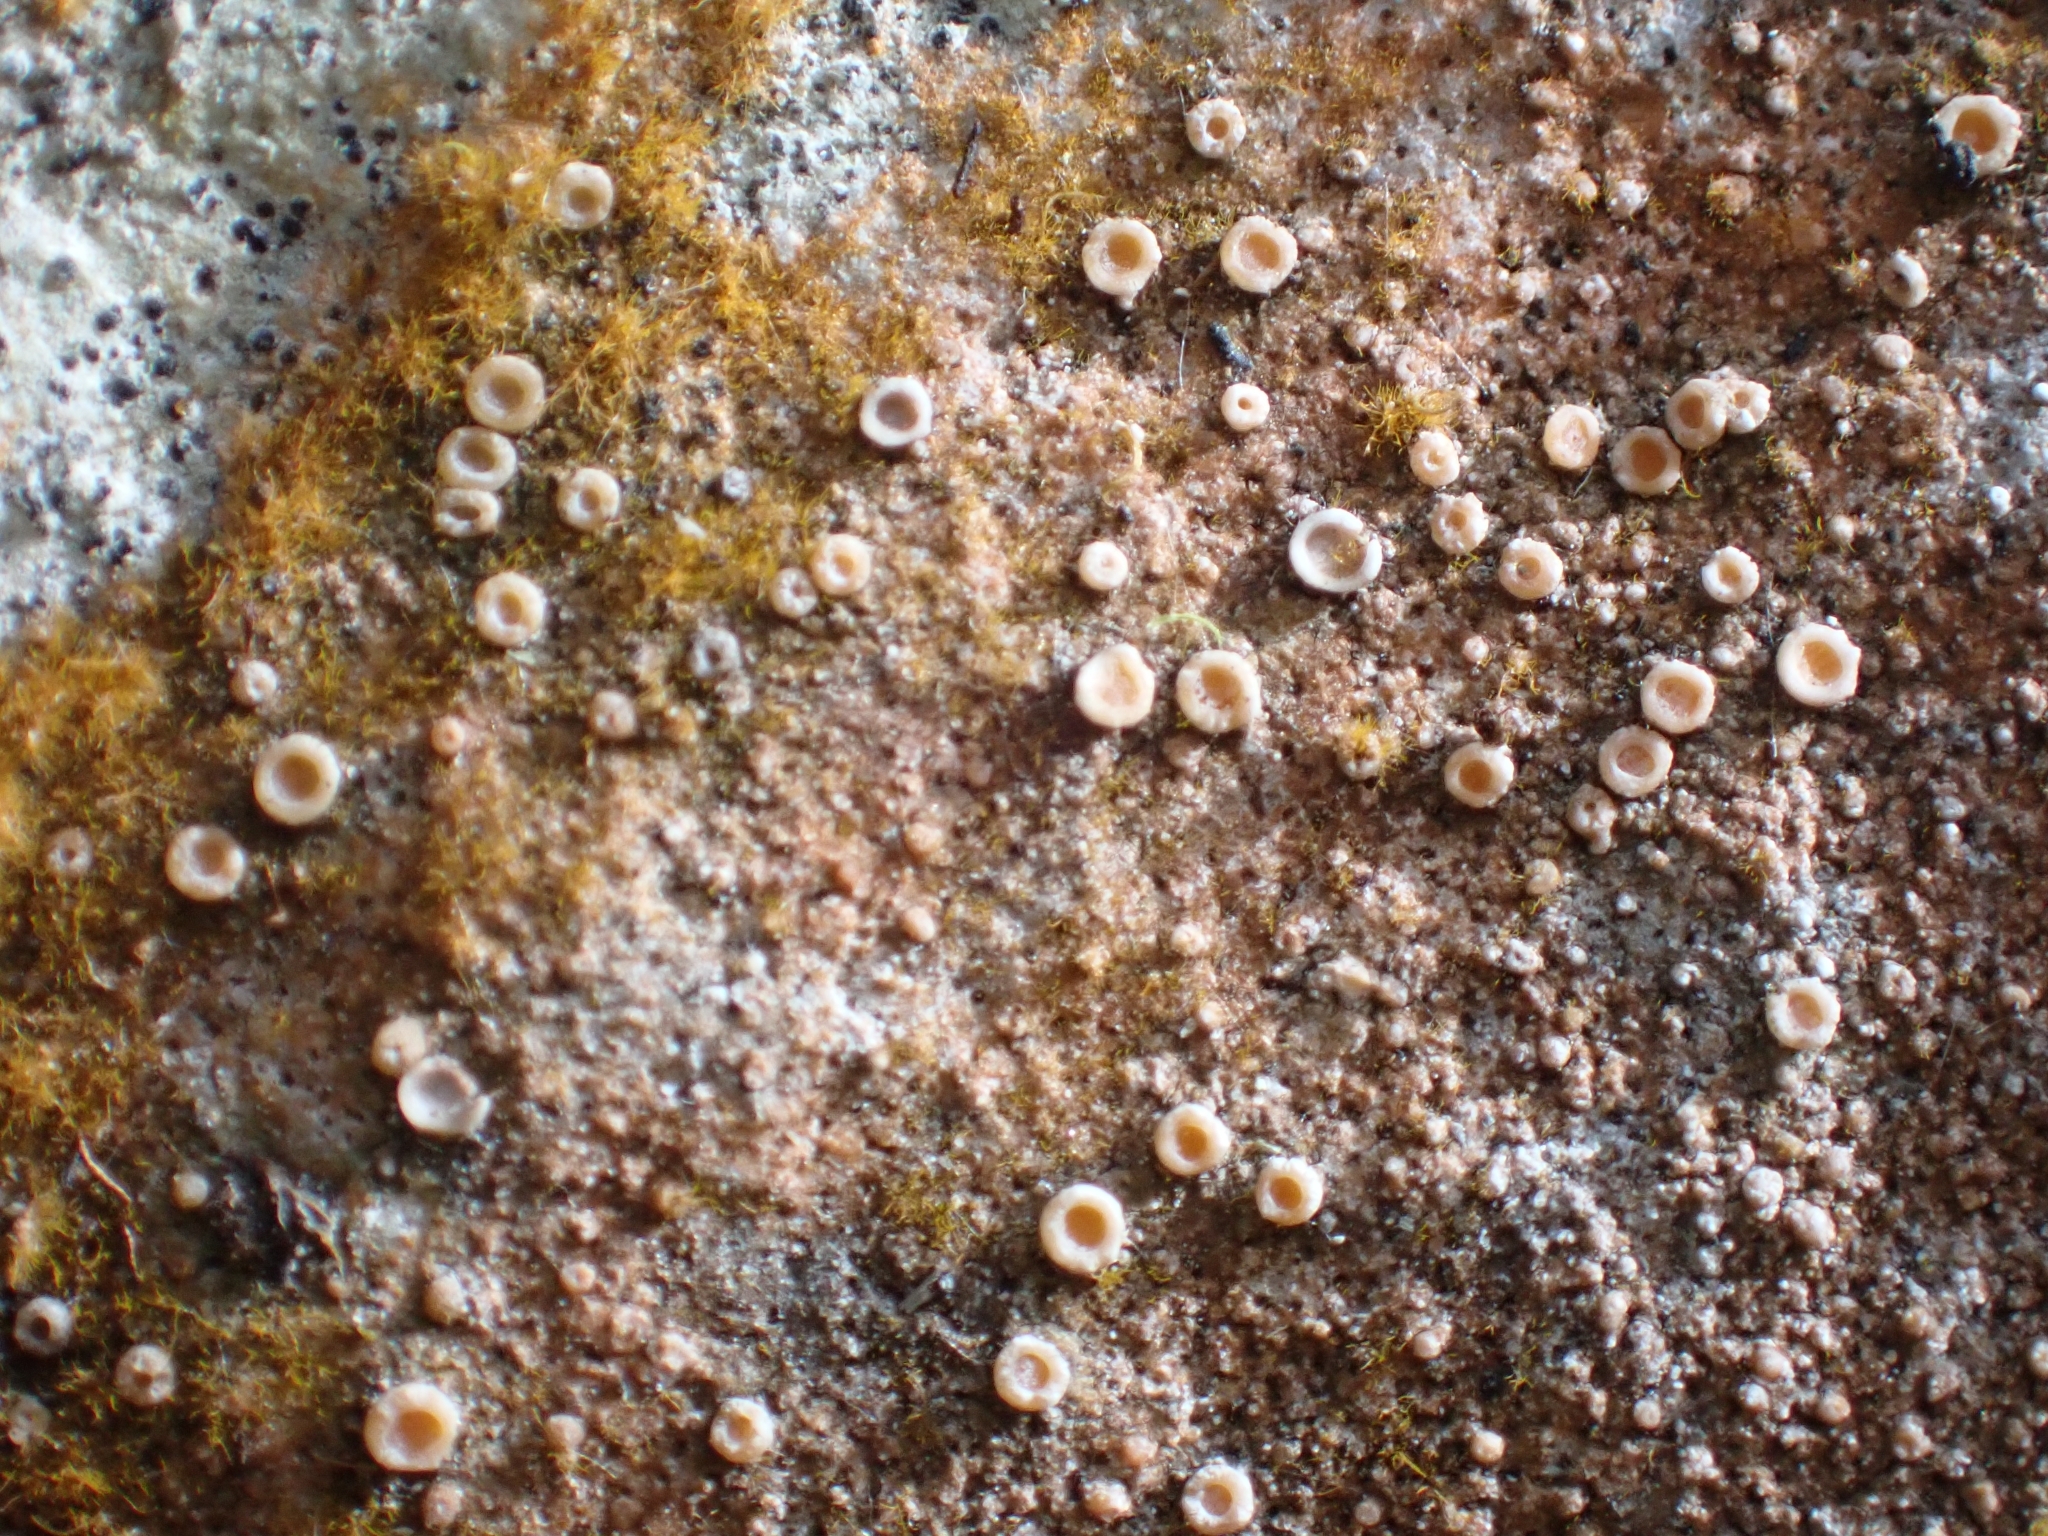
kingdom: Fungi
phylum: Ascomycota
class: Lecanoromycetes
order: Gyalectales
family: Gyalectaceae
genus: Gyalecta
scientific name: Gyalecta jenensis
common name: Rock dimple lichen
